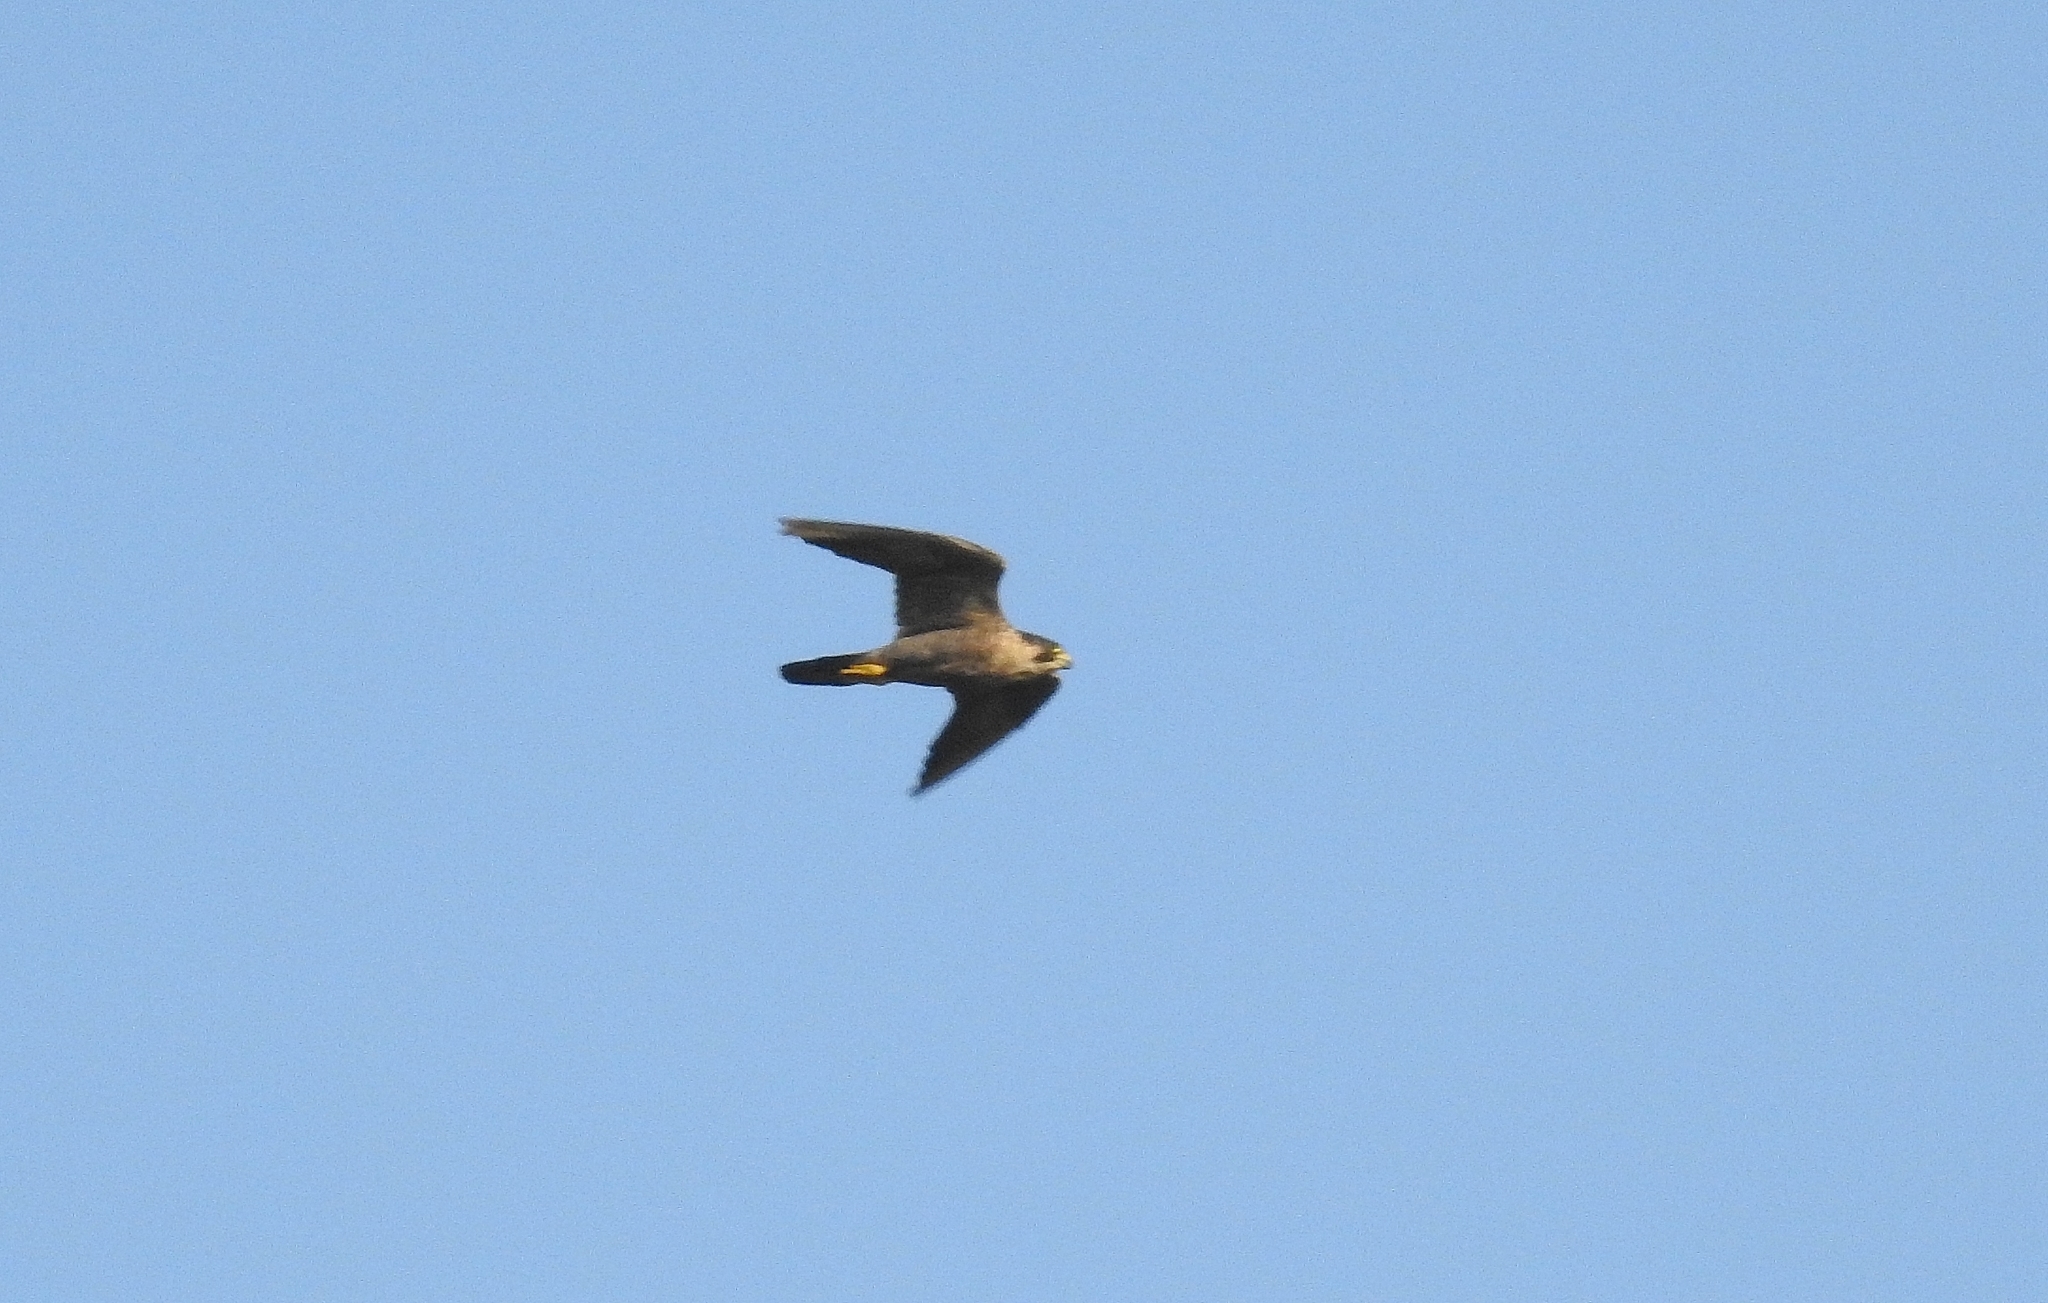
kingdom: Animalia
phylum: Chordata
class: Aves
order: Falconiformes
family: Falconidae
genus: Falco
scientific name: Falco peregrinus
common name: Peregrine falcon
